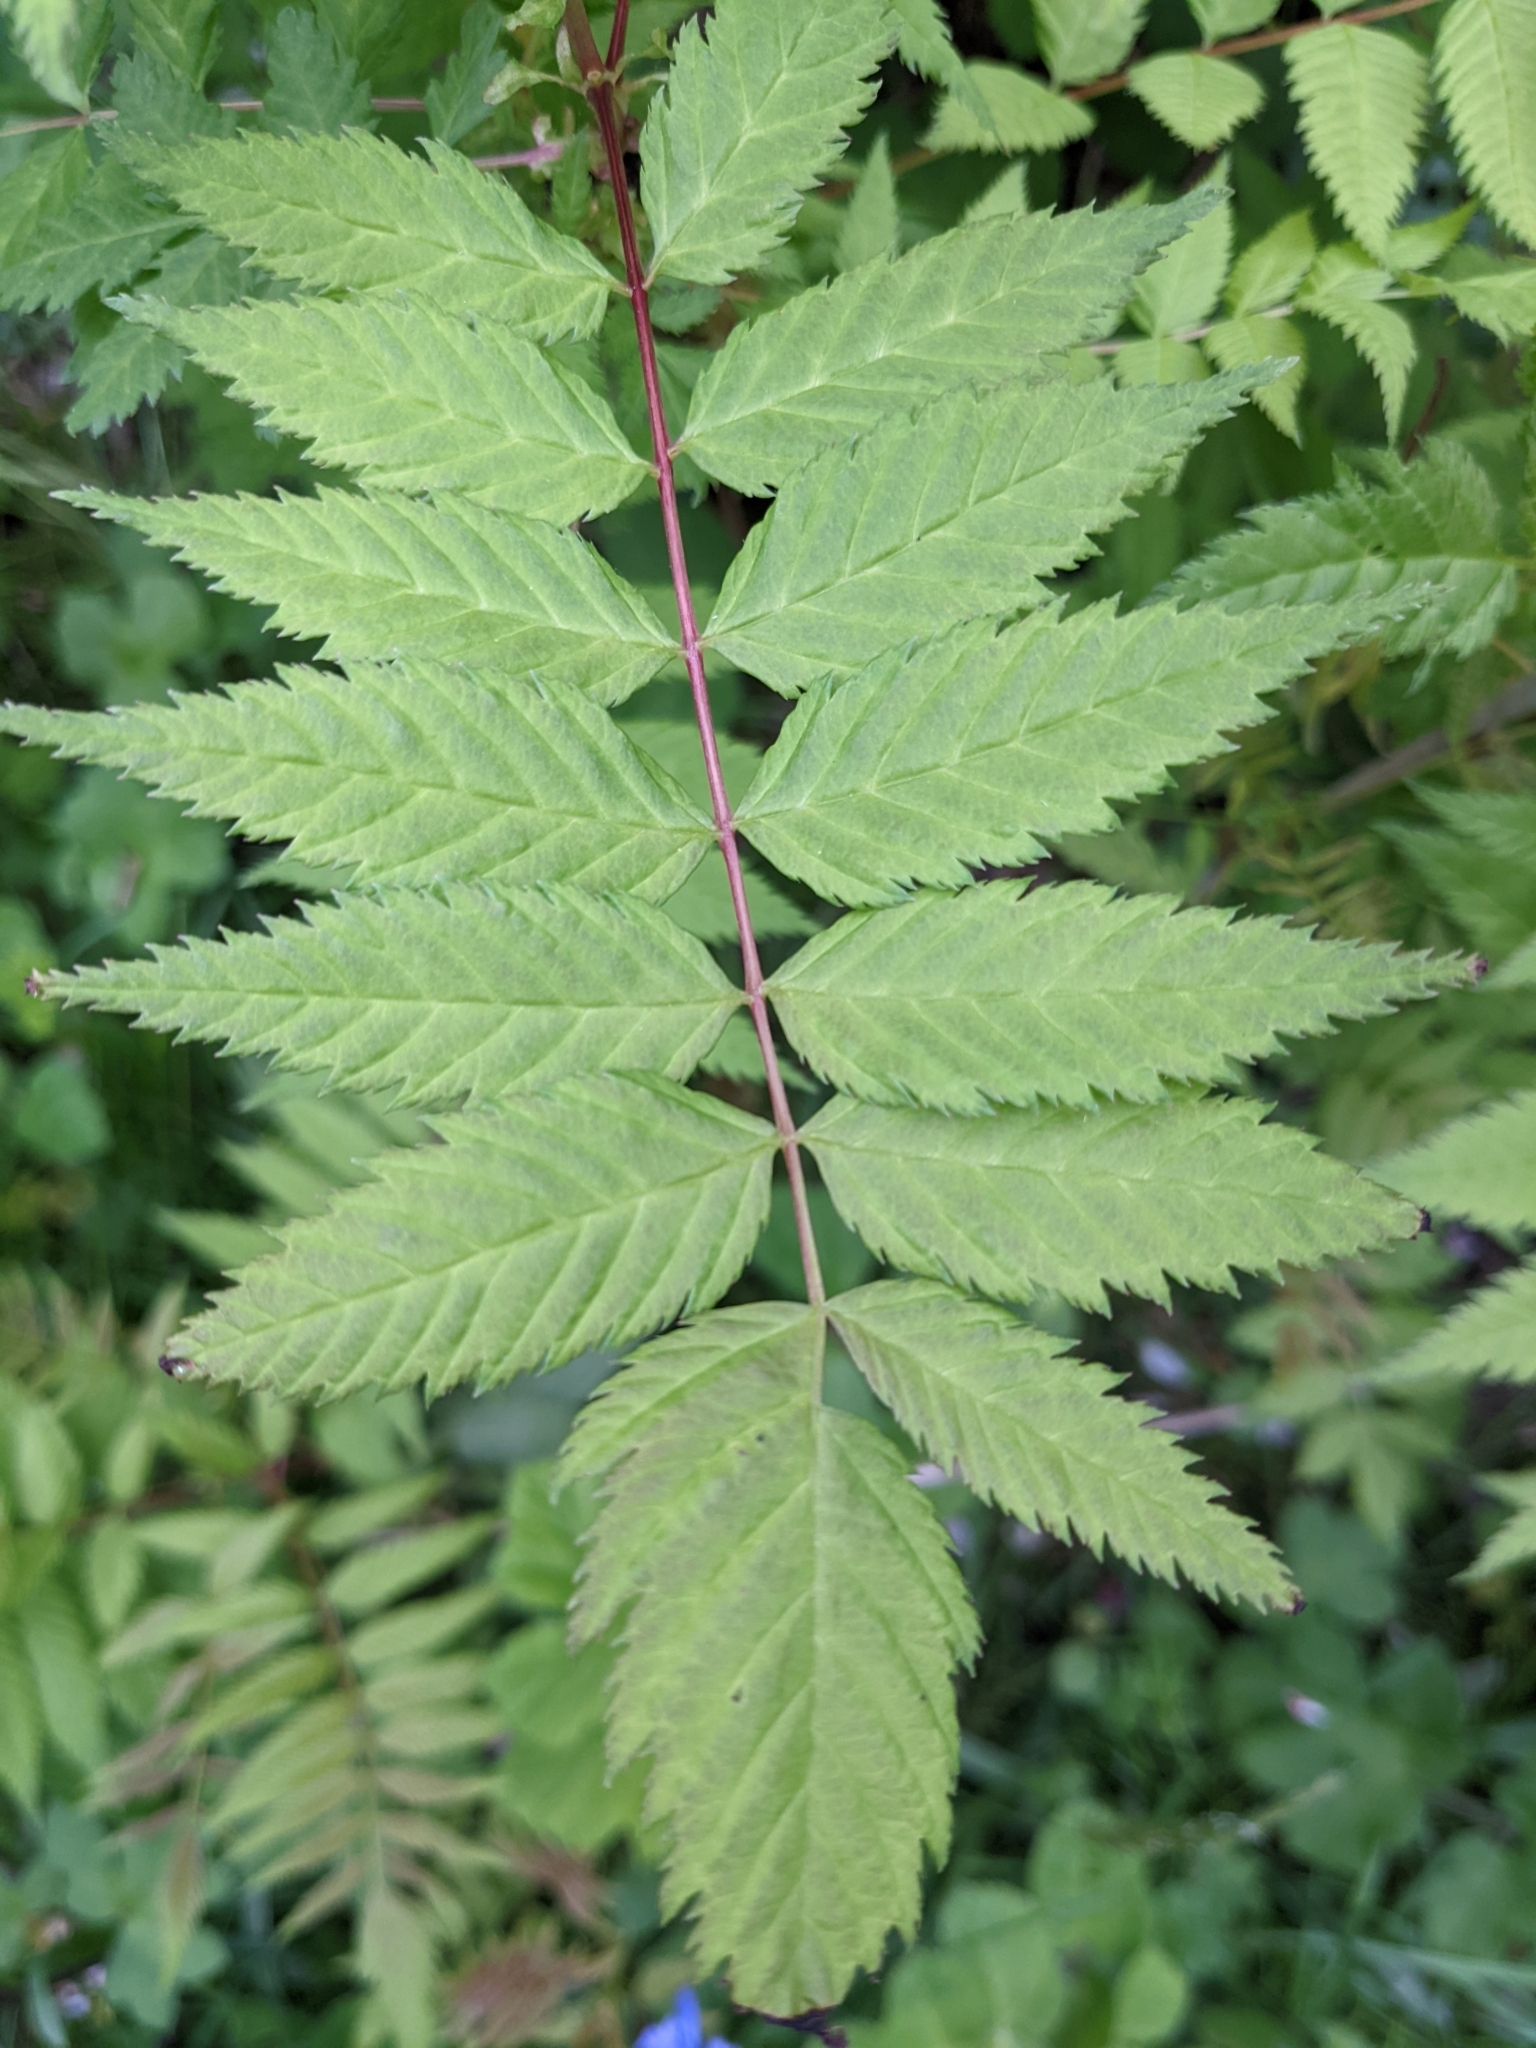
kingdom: Plantae
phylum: Tracheophyta
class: Magnoliopsida
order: Rosales
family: Rosaceae
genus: Sorbaria
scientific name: Sorbaria sorbifolia
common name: False spiraea
